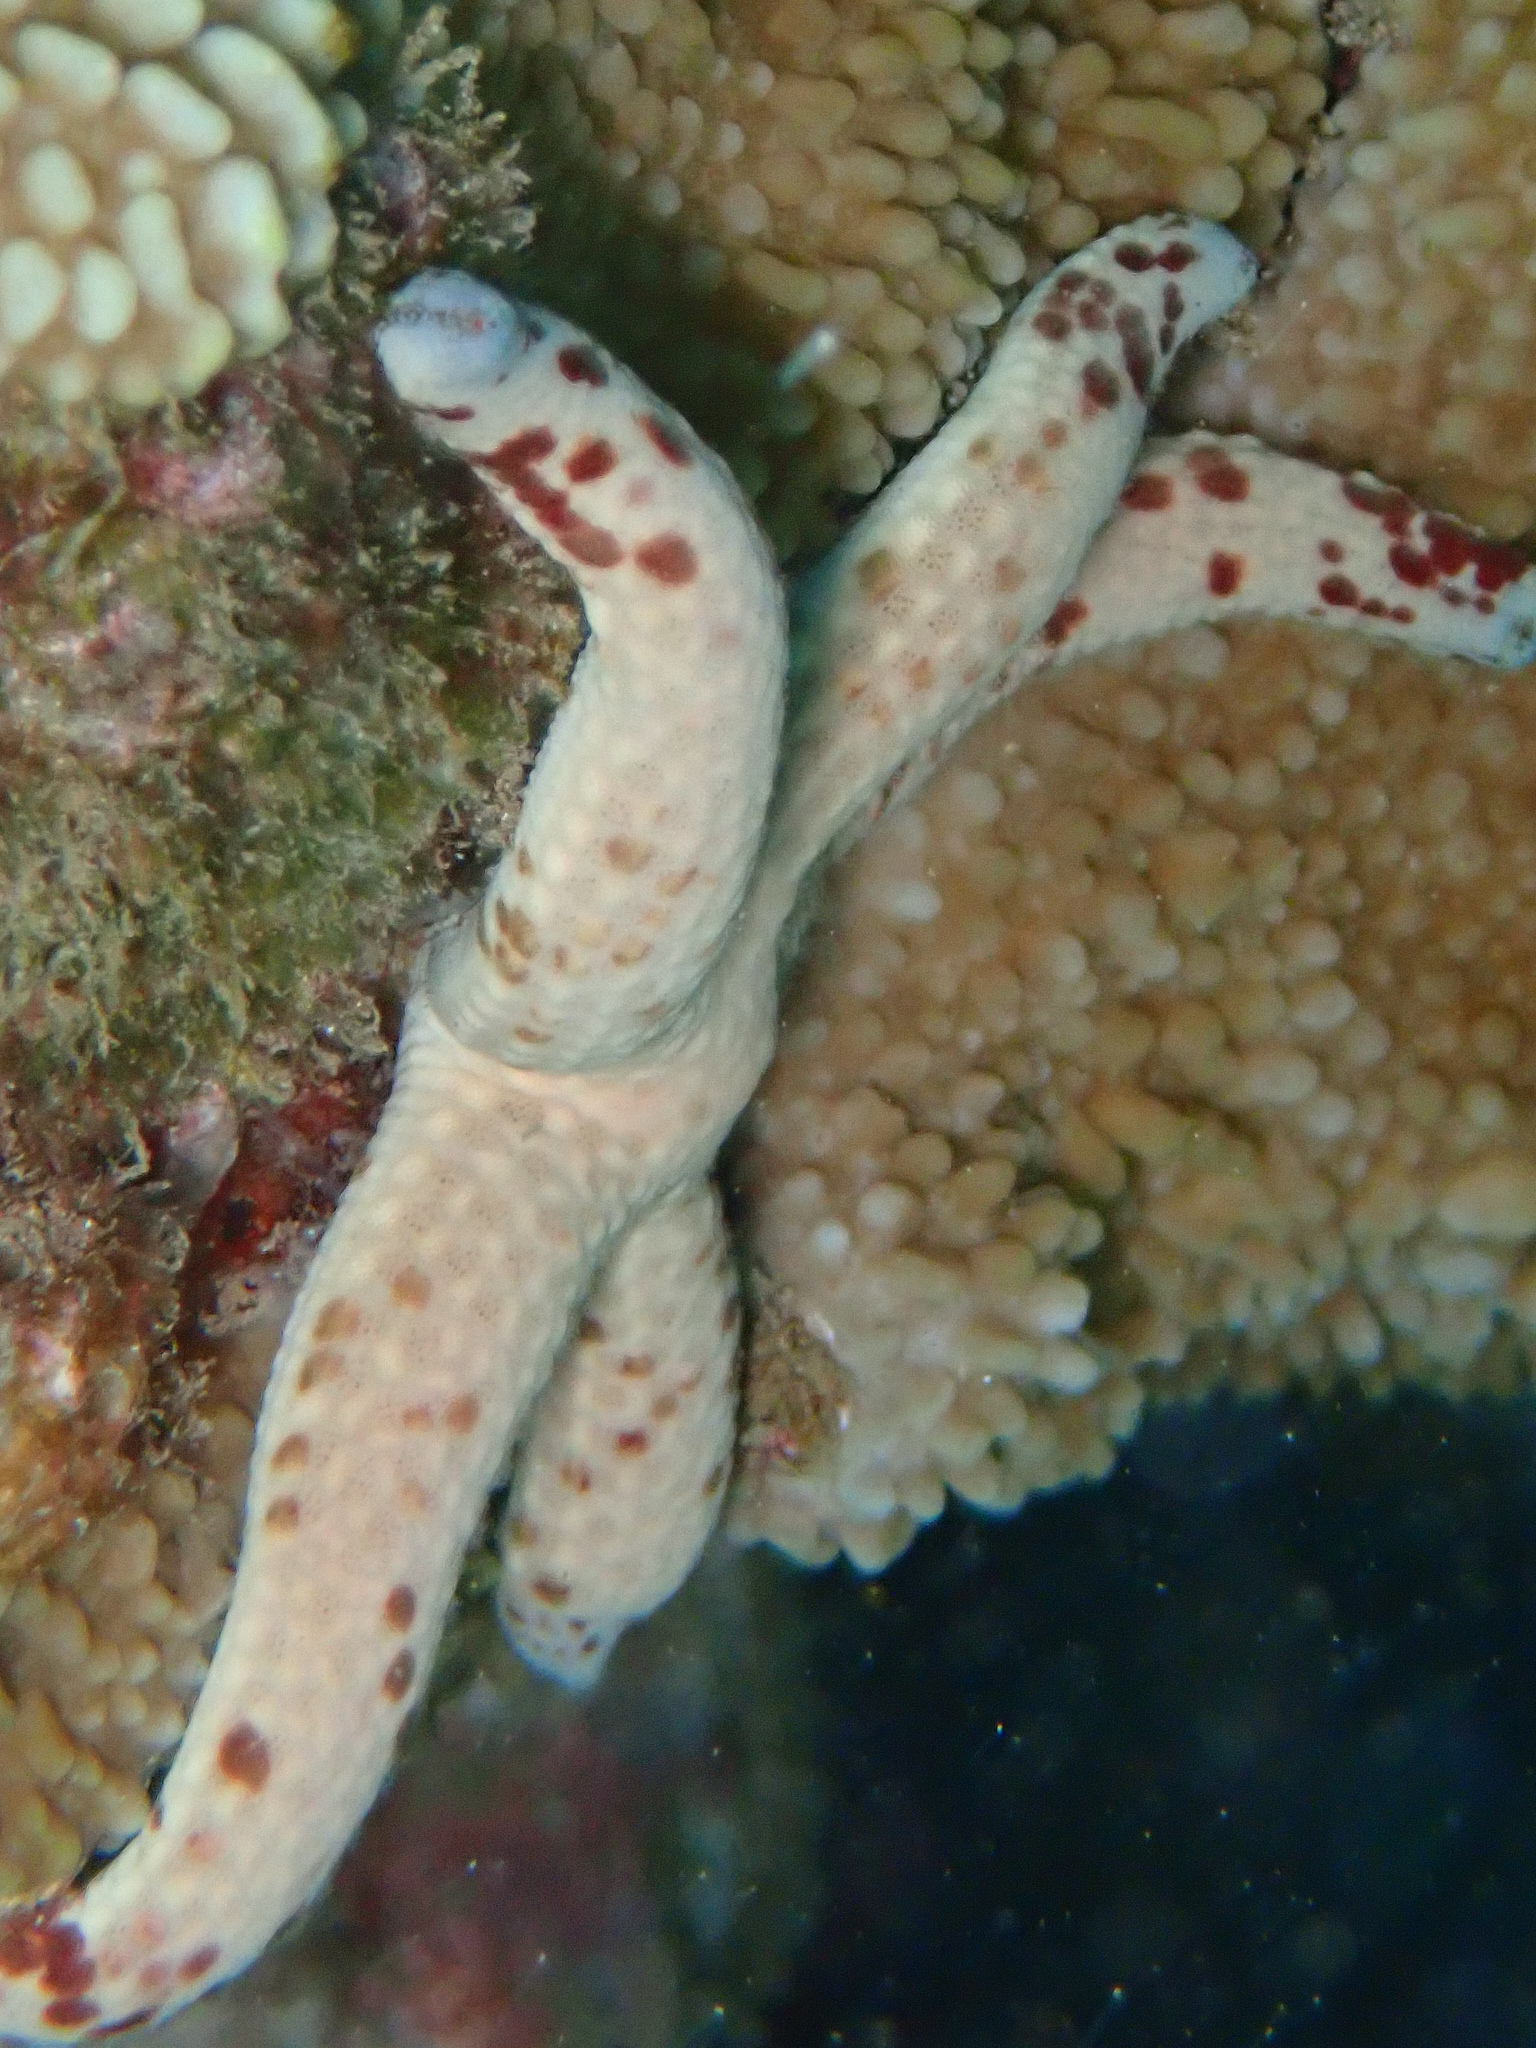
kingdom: Animalia
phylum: Echinodermata
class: Asteroidea
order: Valvatida
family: Ophidiasteridae
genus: Linckia
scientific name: Linckia multifora
